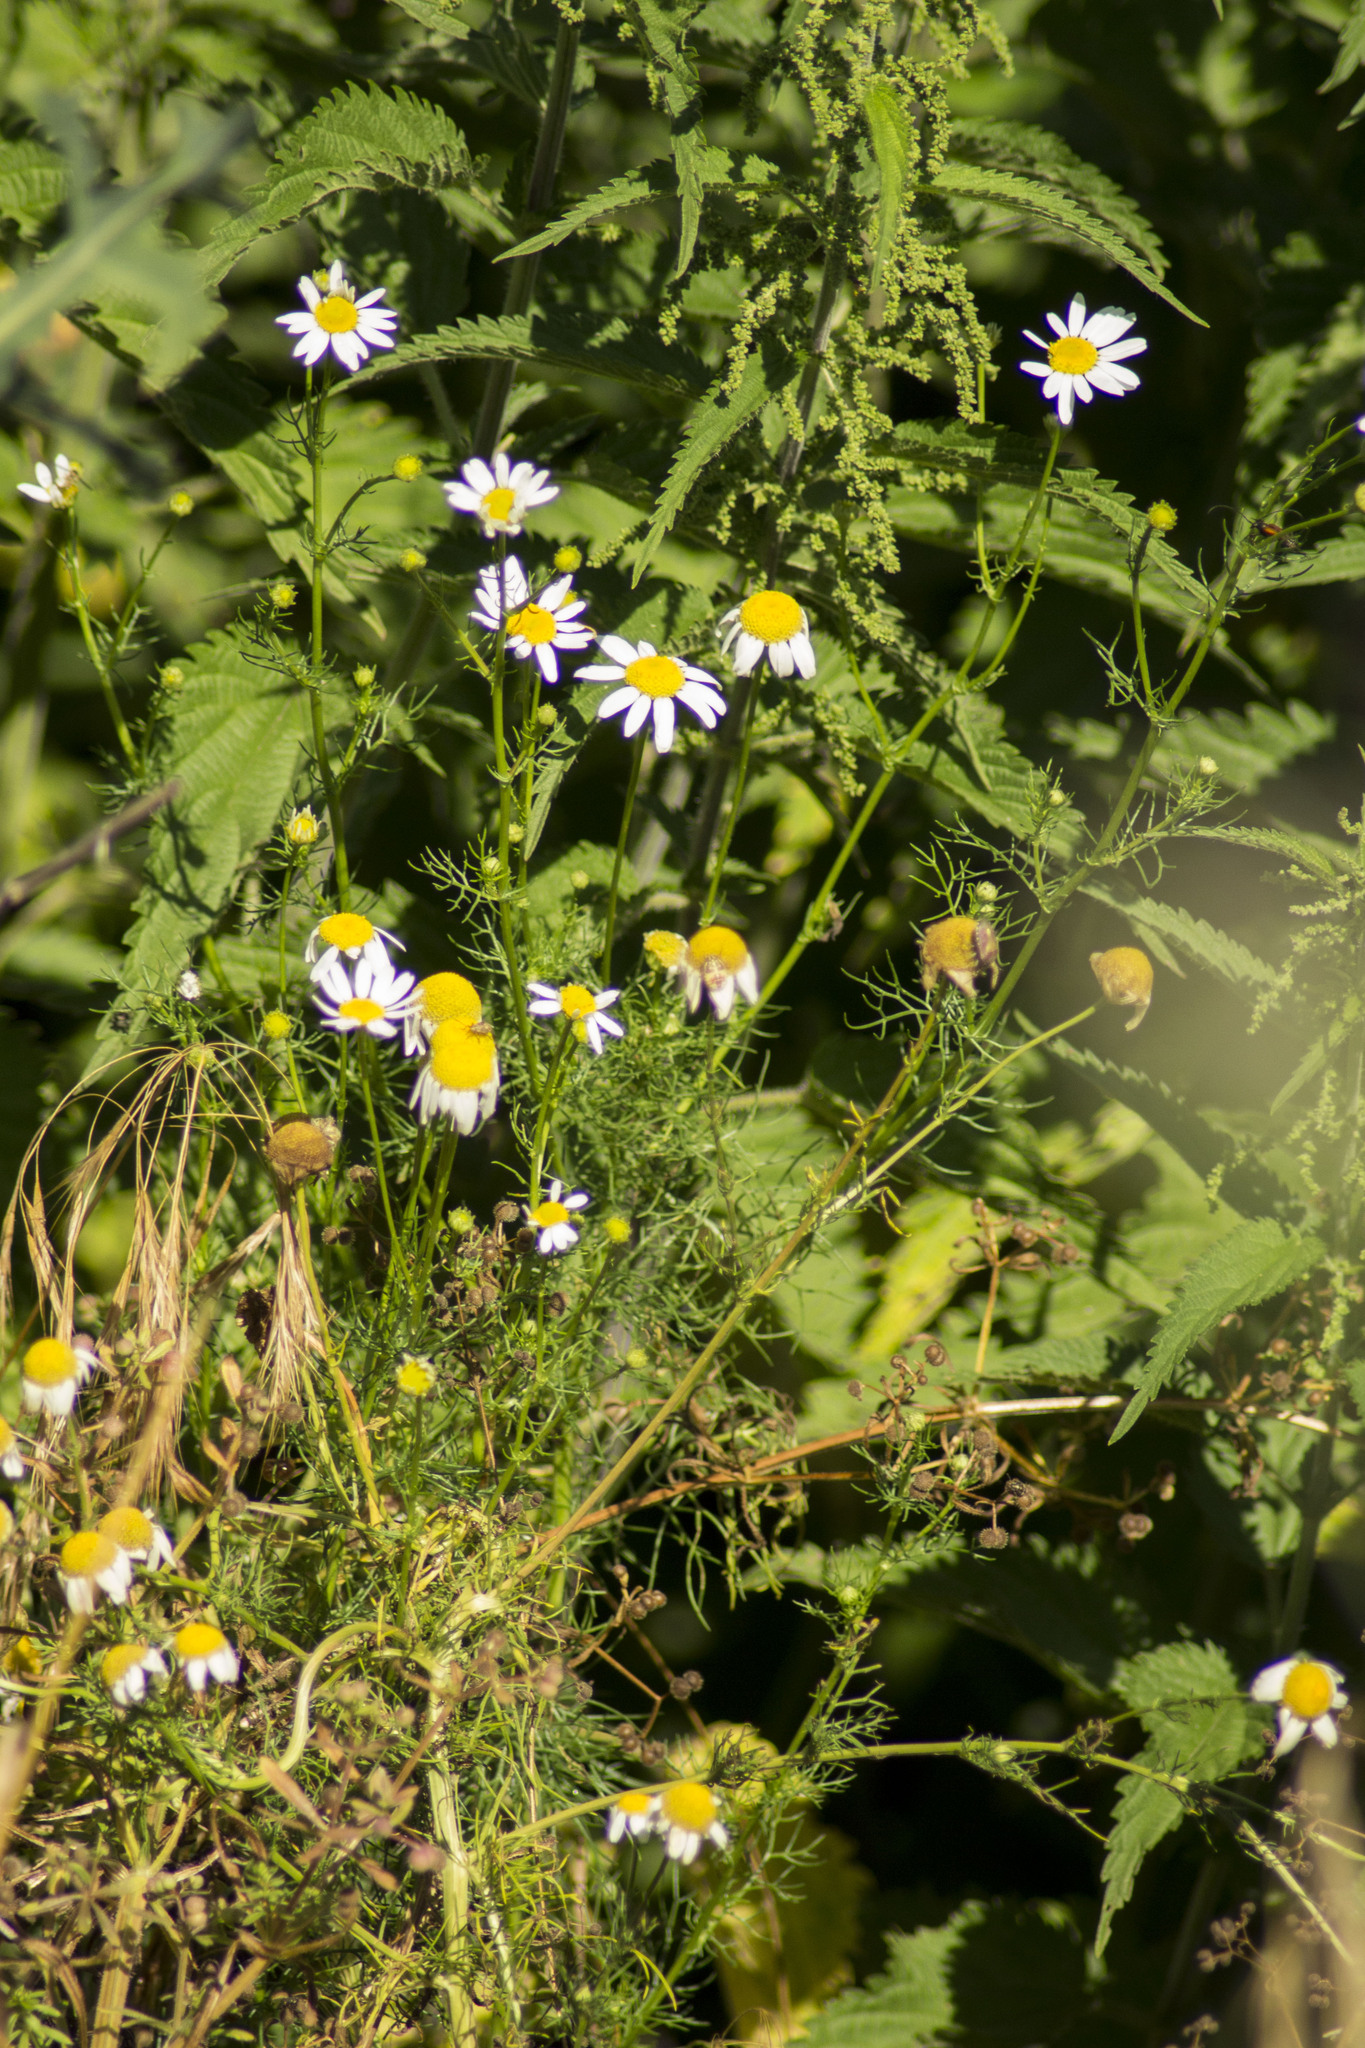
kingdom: Plantae
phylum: Tracheophyta
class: Magnoliopsida
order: Asterales
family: Asteraceae
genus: Tripleurospermum
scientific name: Tripleurospermum inodorum
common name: Scentless mayweed
